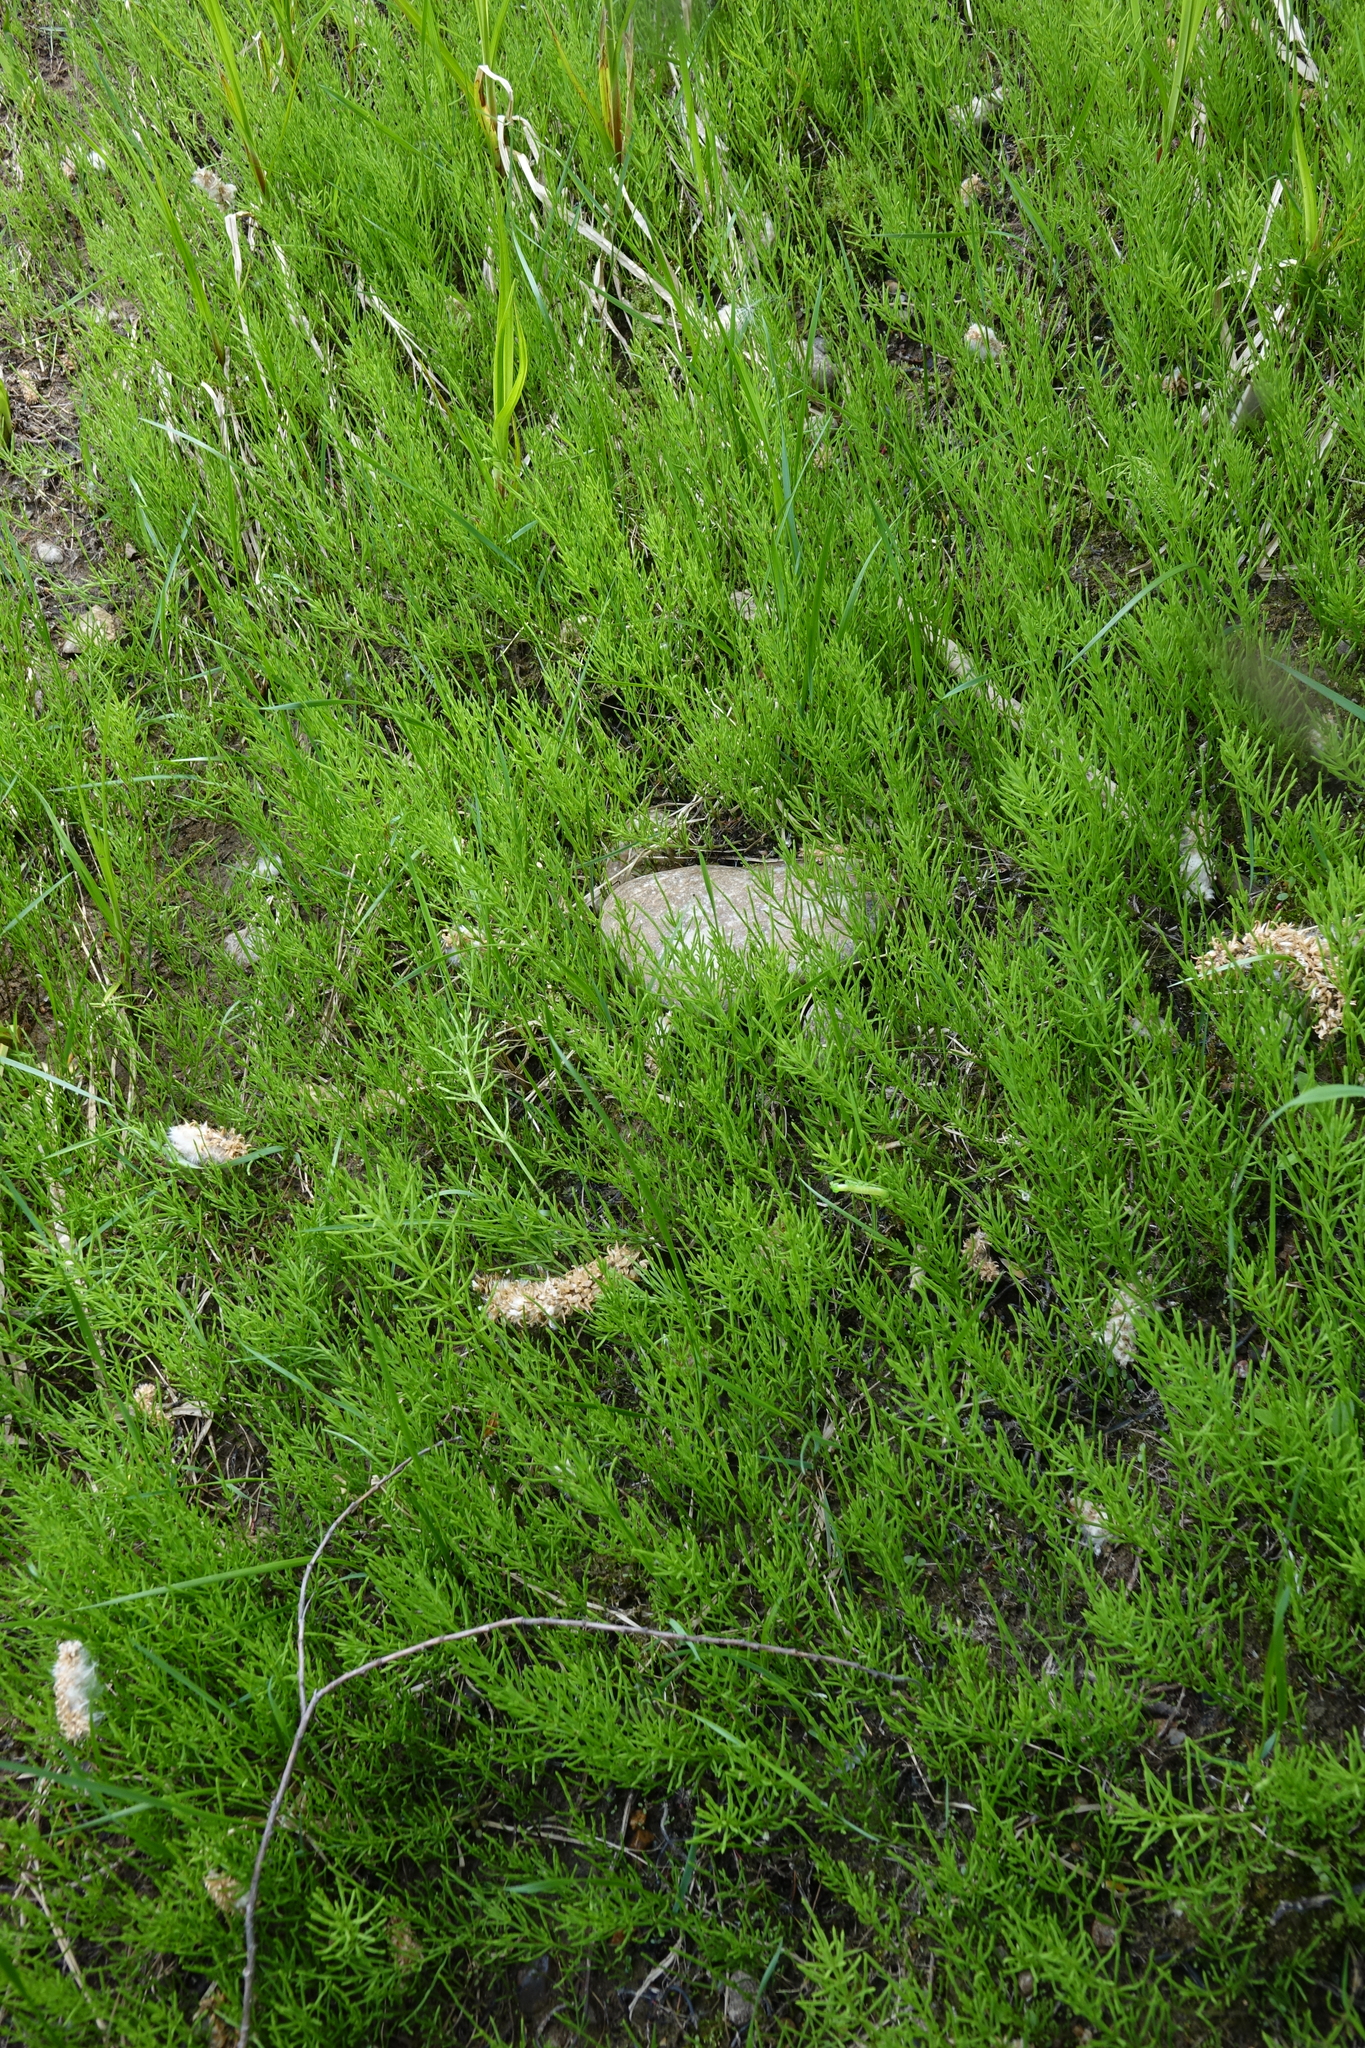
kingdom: Plantae
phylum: Tracheophyta
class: Polypodiopsida
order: Equisetales
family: Equisetaceae
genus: Equisetum
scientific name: Equisetum arvense
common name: Field horsetail
